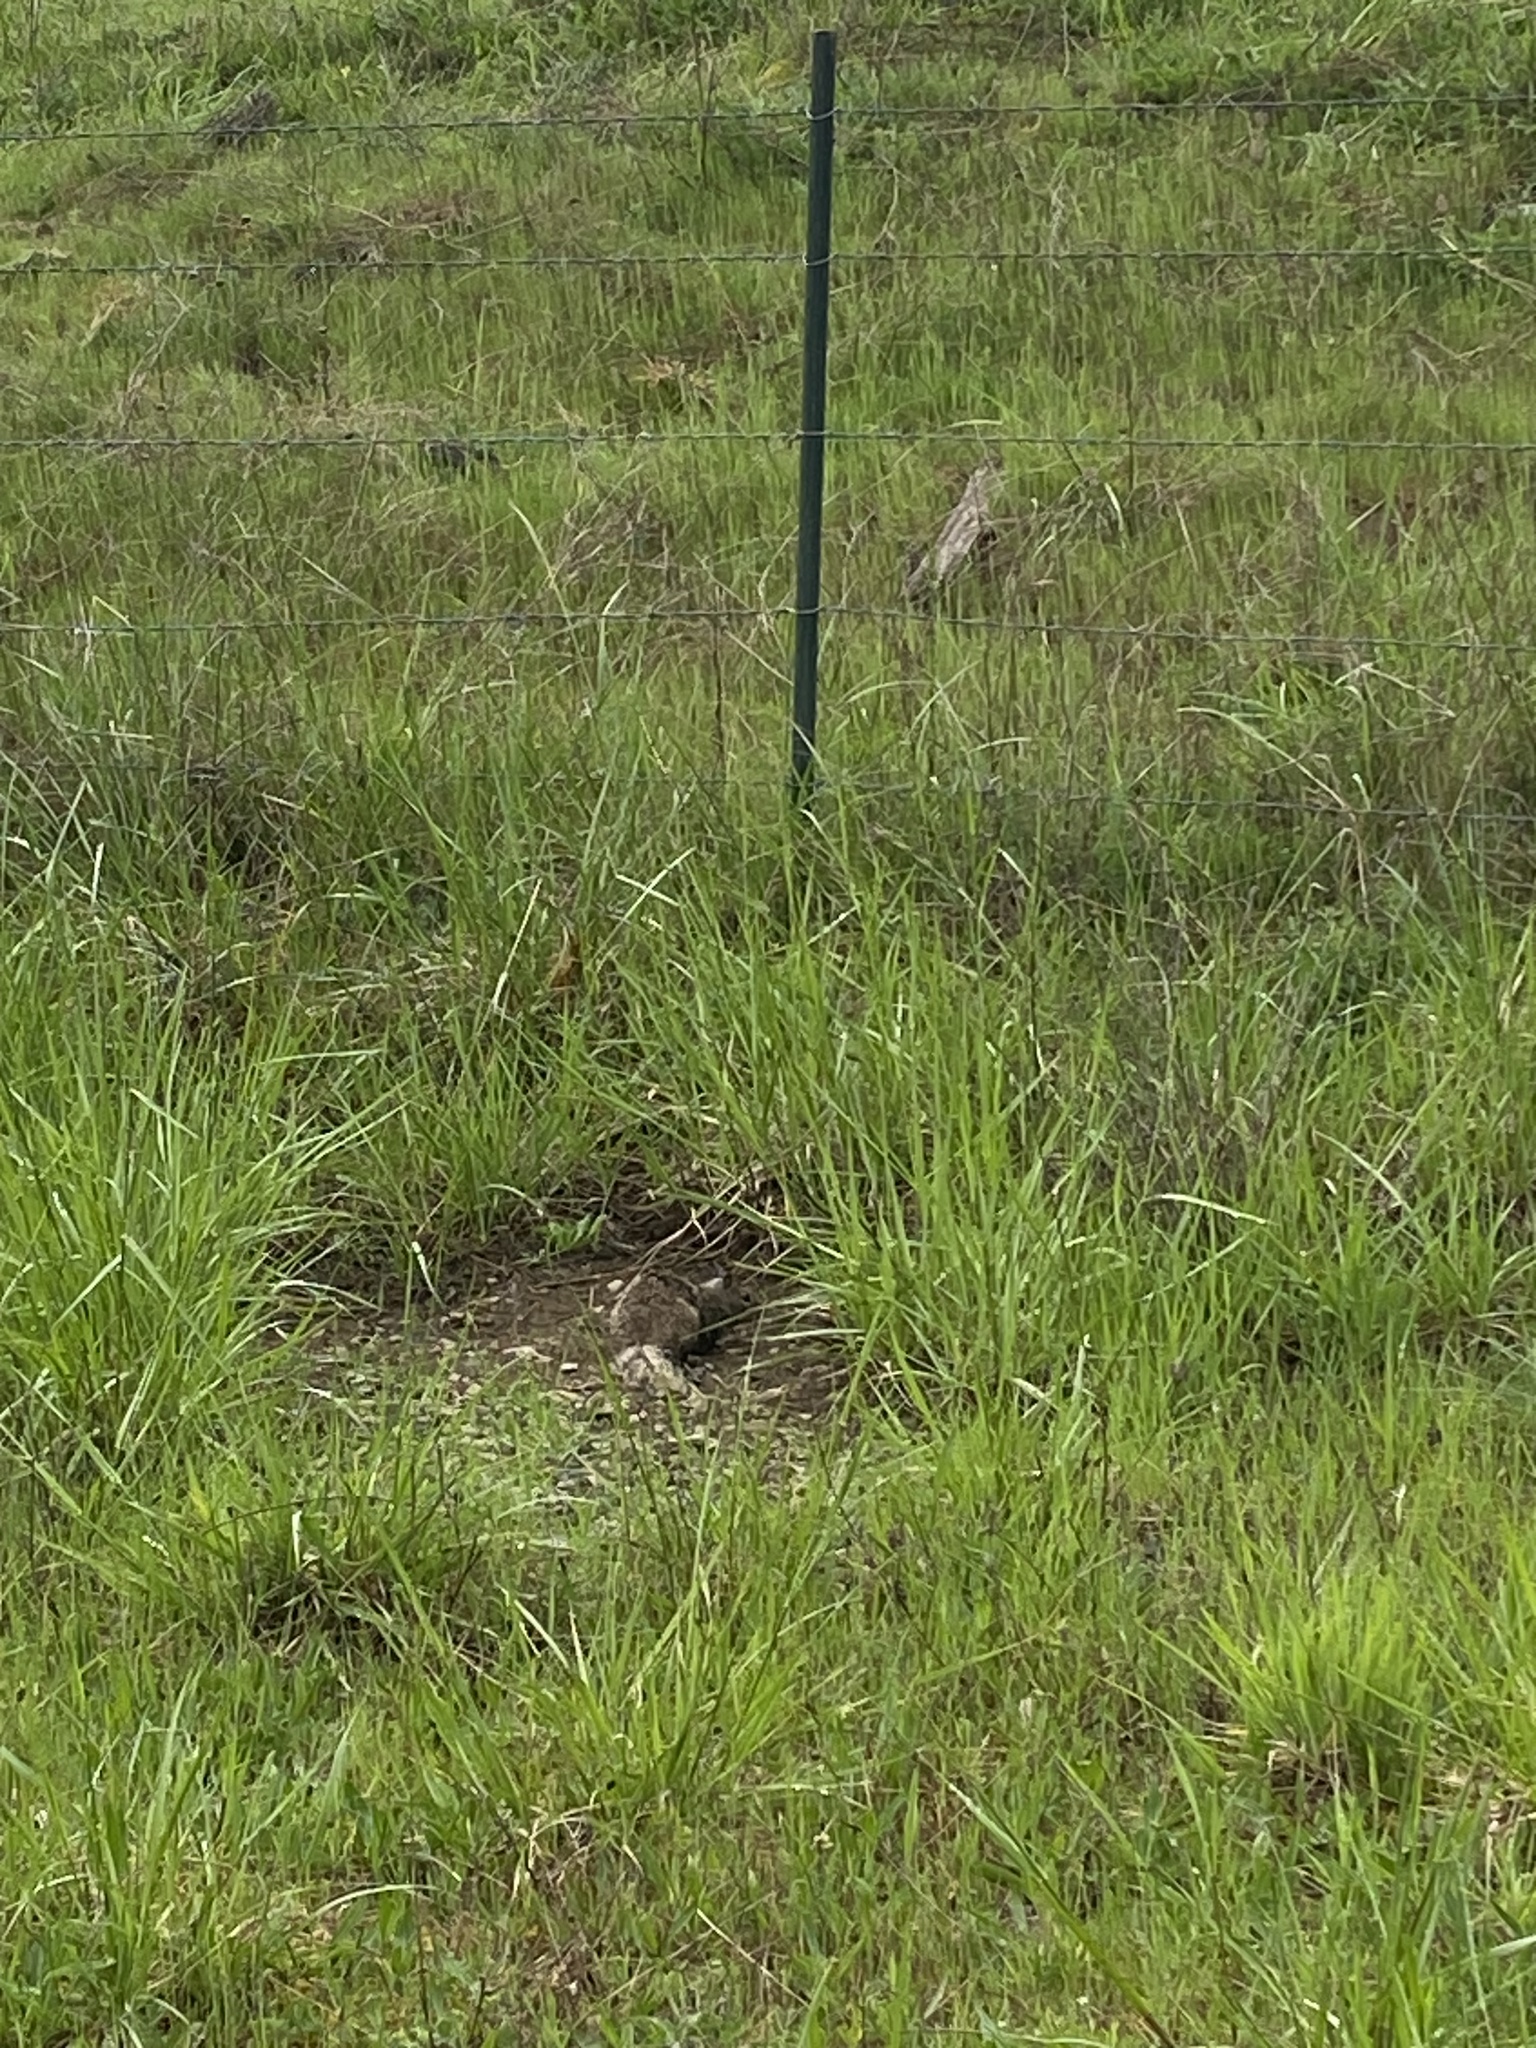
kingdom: Animalia
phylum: Chordata
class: Mammalia
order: Rodentia
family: Sciuridae
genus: Otospermophilus
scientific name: Otospermophilus beecheyi
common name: California ground squirrel
